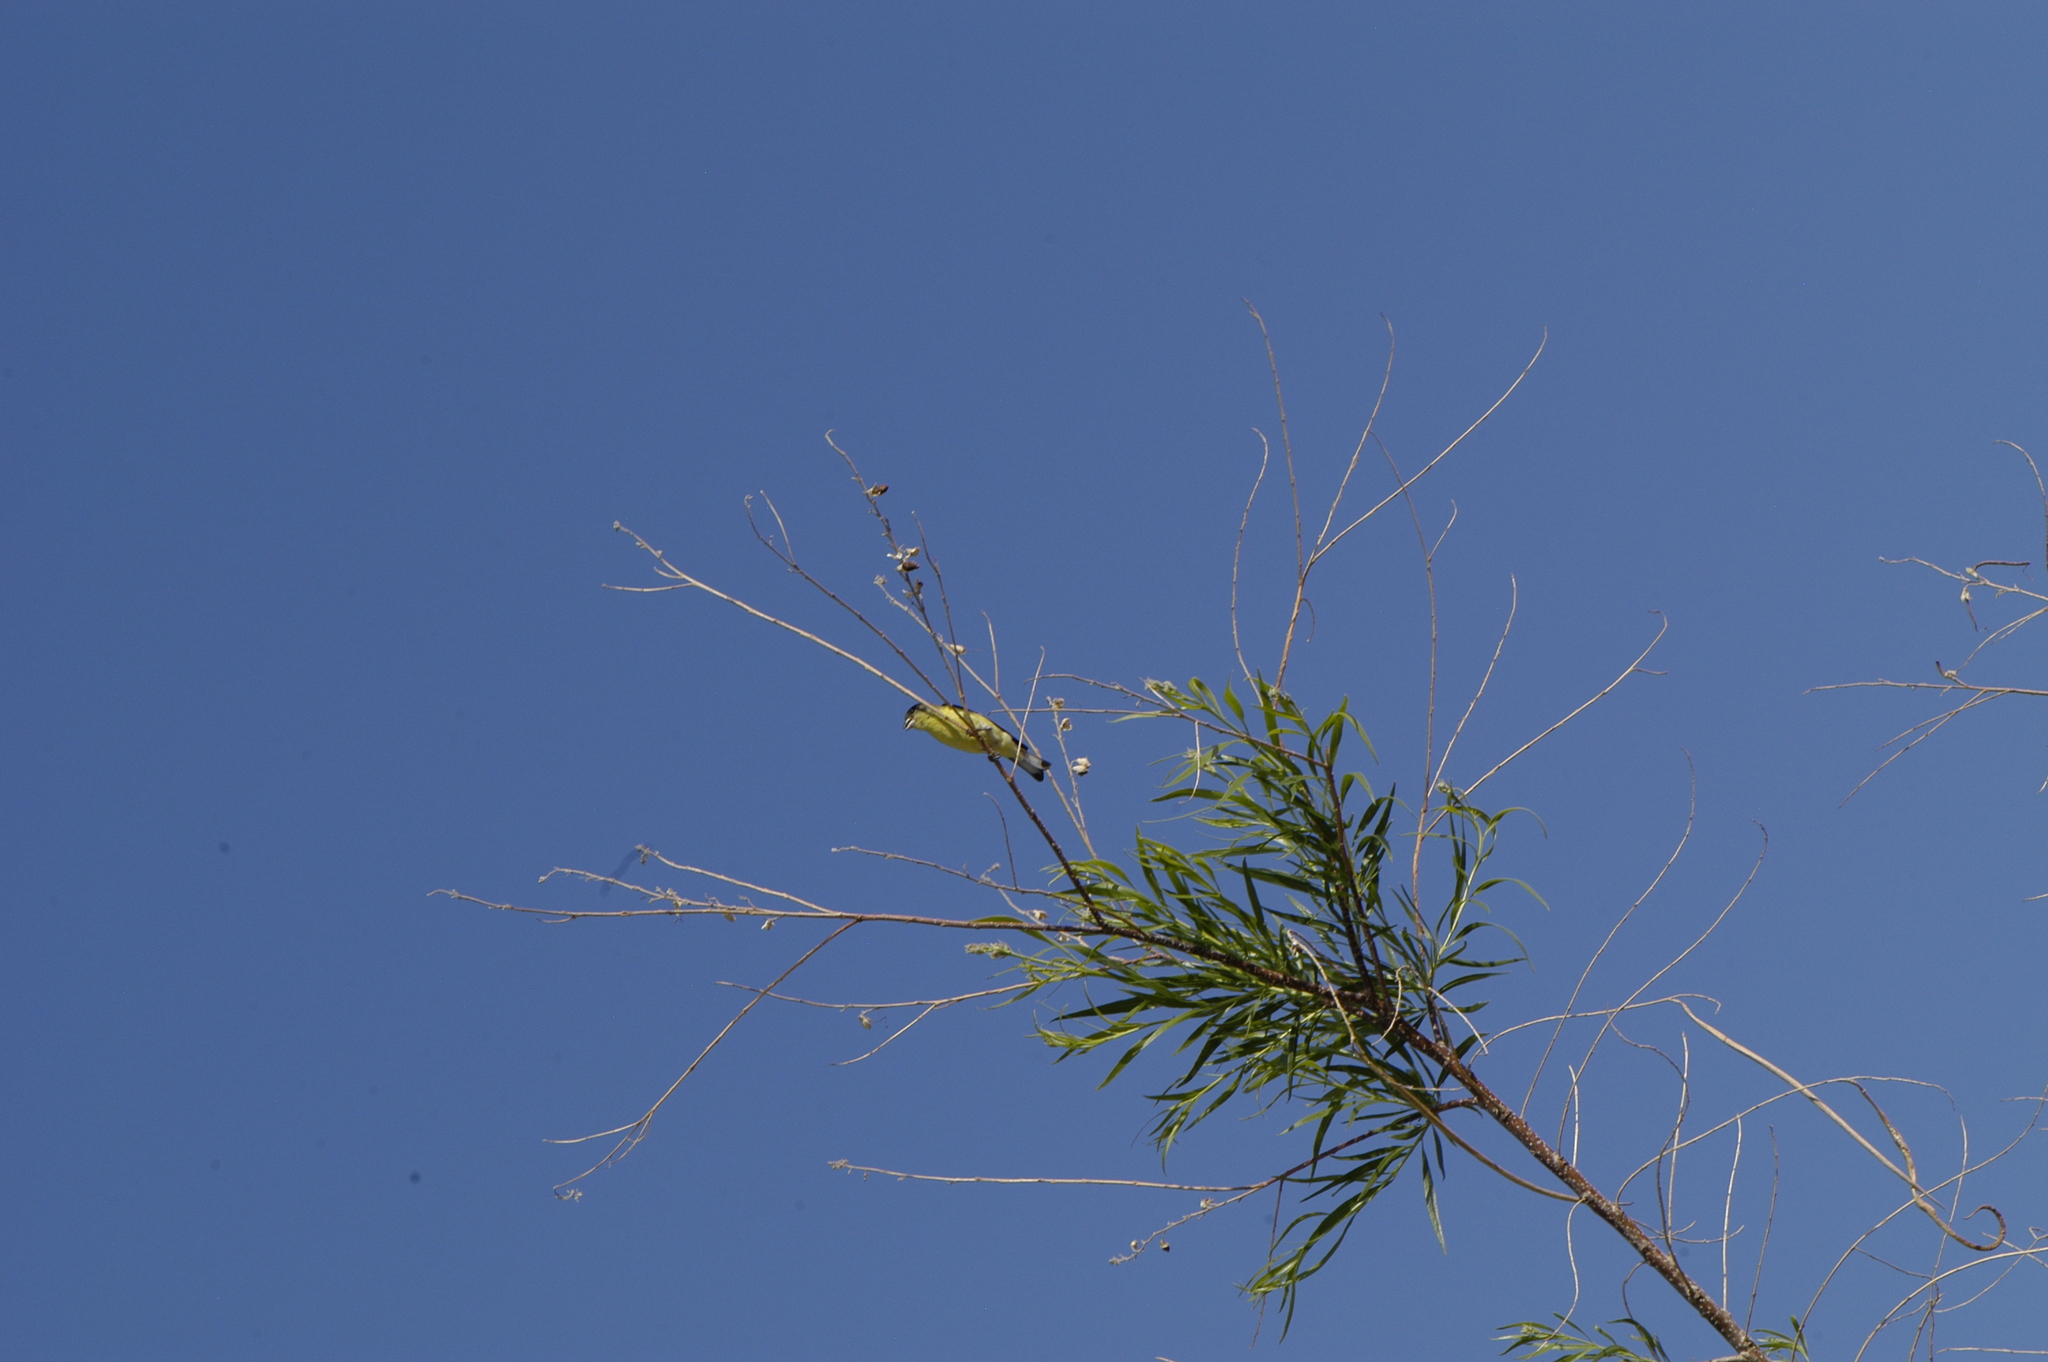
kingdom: Animalia
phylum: Chordata
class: Aves
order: Passeriformes
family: Fringillidae
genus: Spinus
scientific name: Spinus psaltria
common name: Lesser goldfinch
